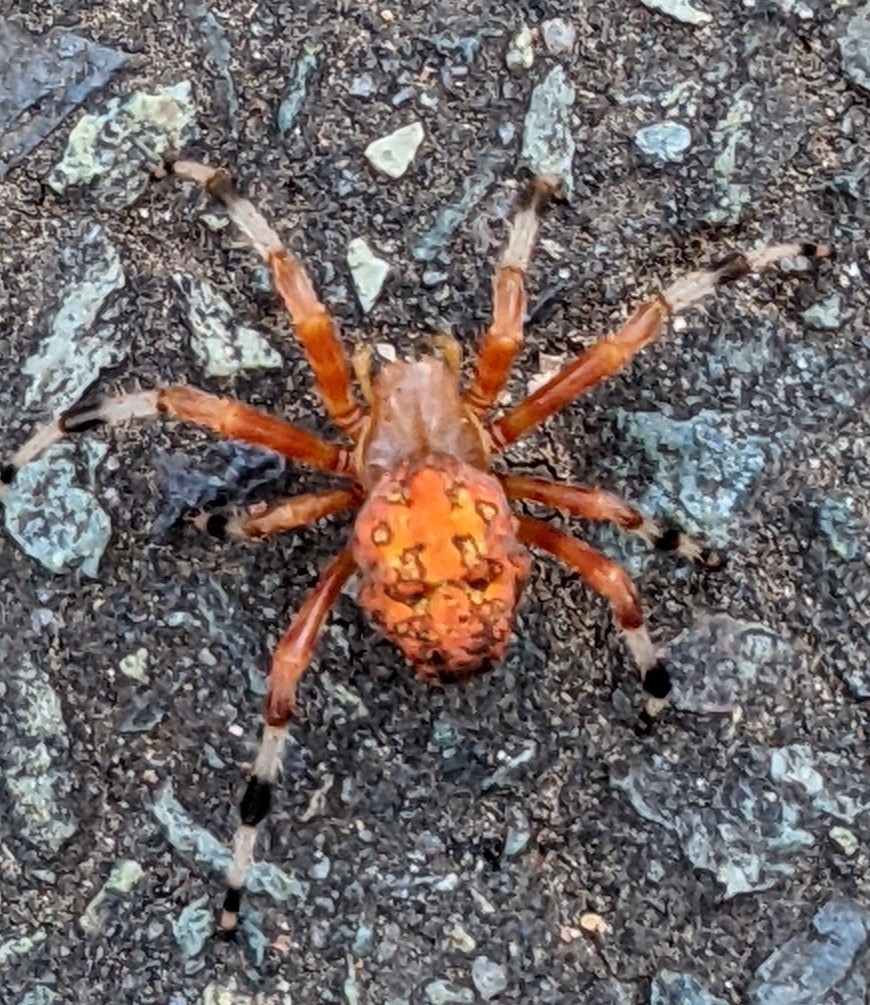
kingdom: Animalia
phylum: Arthropoda
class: Arachnida
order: Araneae
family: Araneidae
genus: Araneus
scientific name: Araneus marmoreus
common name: Marbled orbweaver
